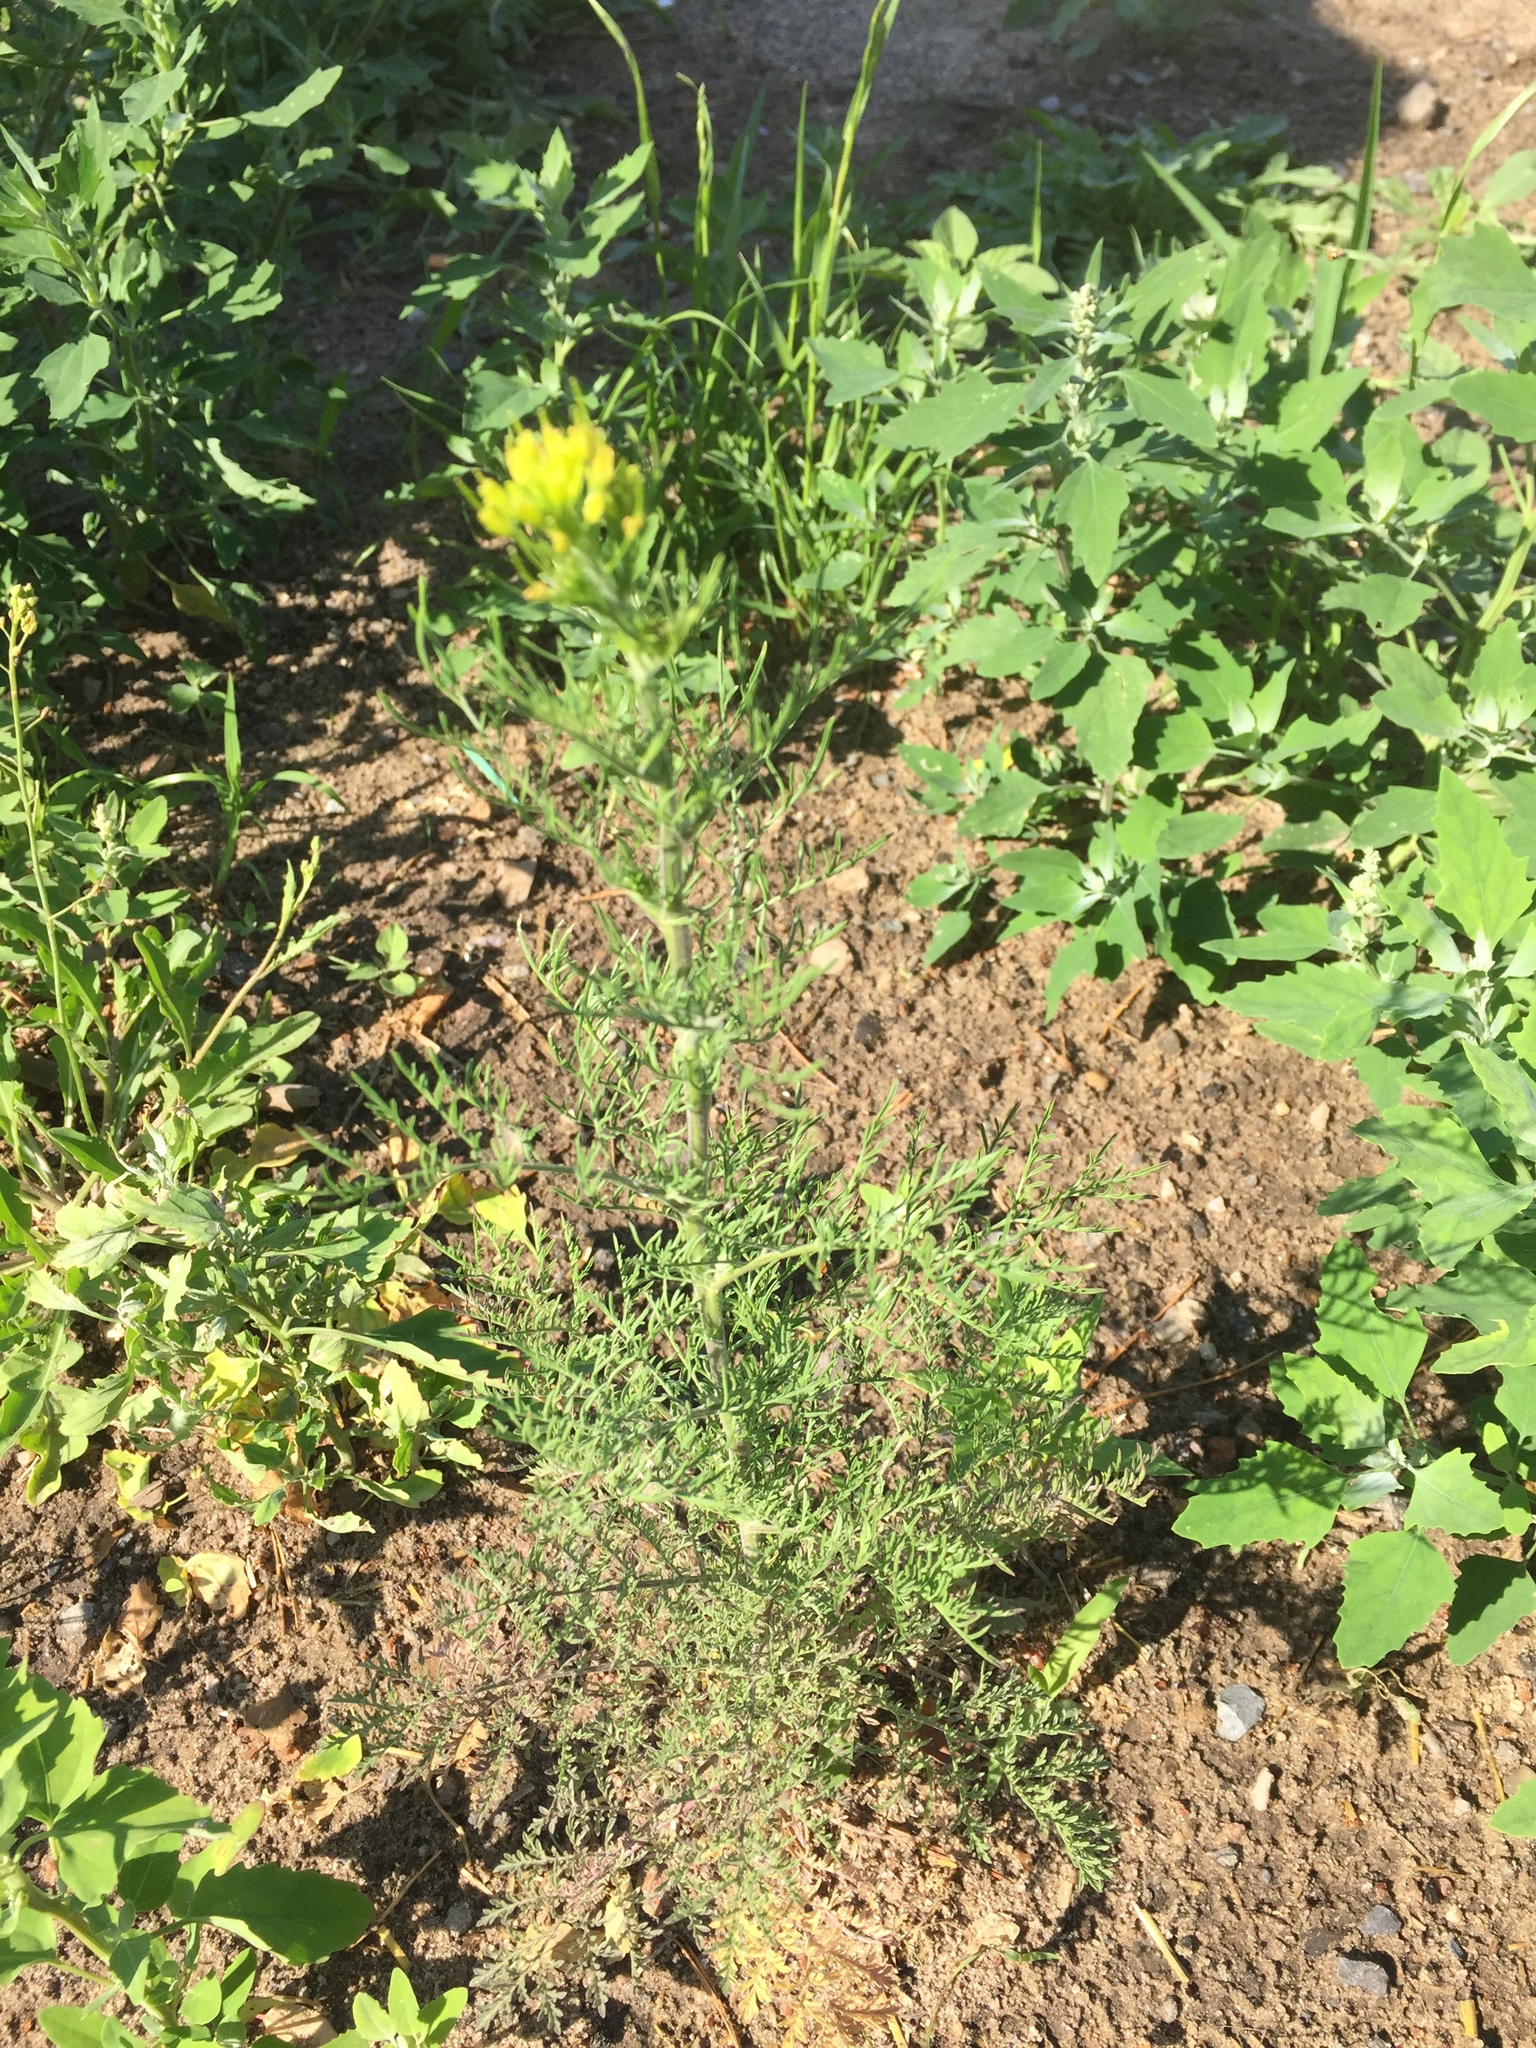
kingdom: Plantae
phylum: Tracheophyta
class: Magnoliopsida
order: Brassicales
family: Brassicaceae
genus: Descurainia
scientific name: Descurainia sophia
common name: Flixweed
